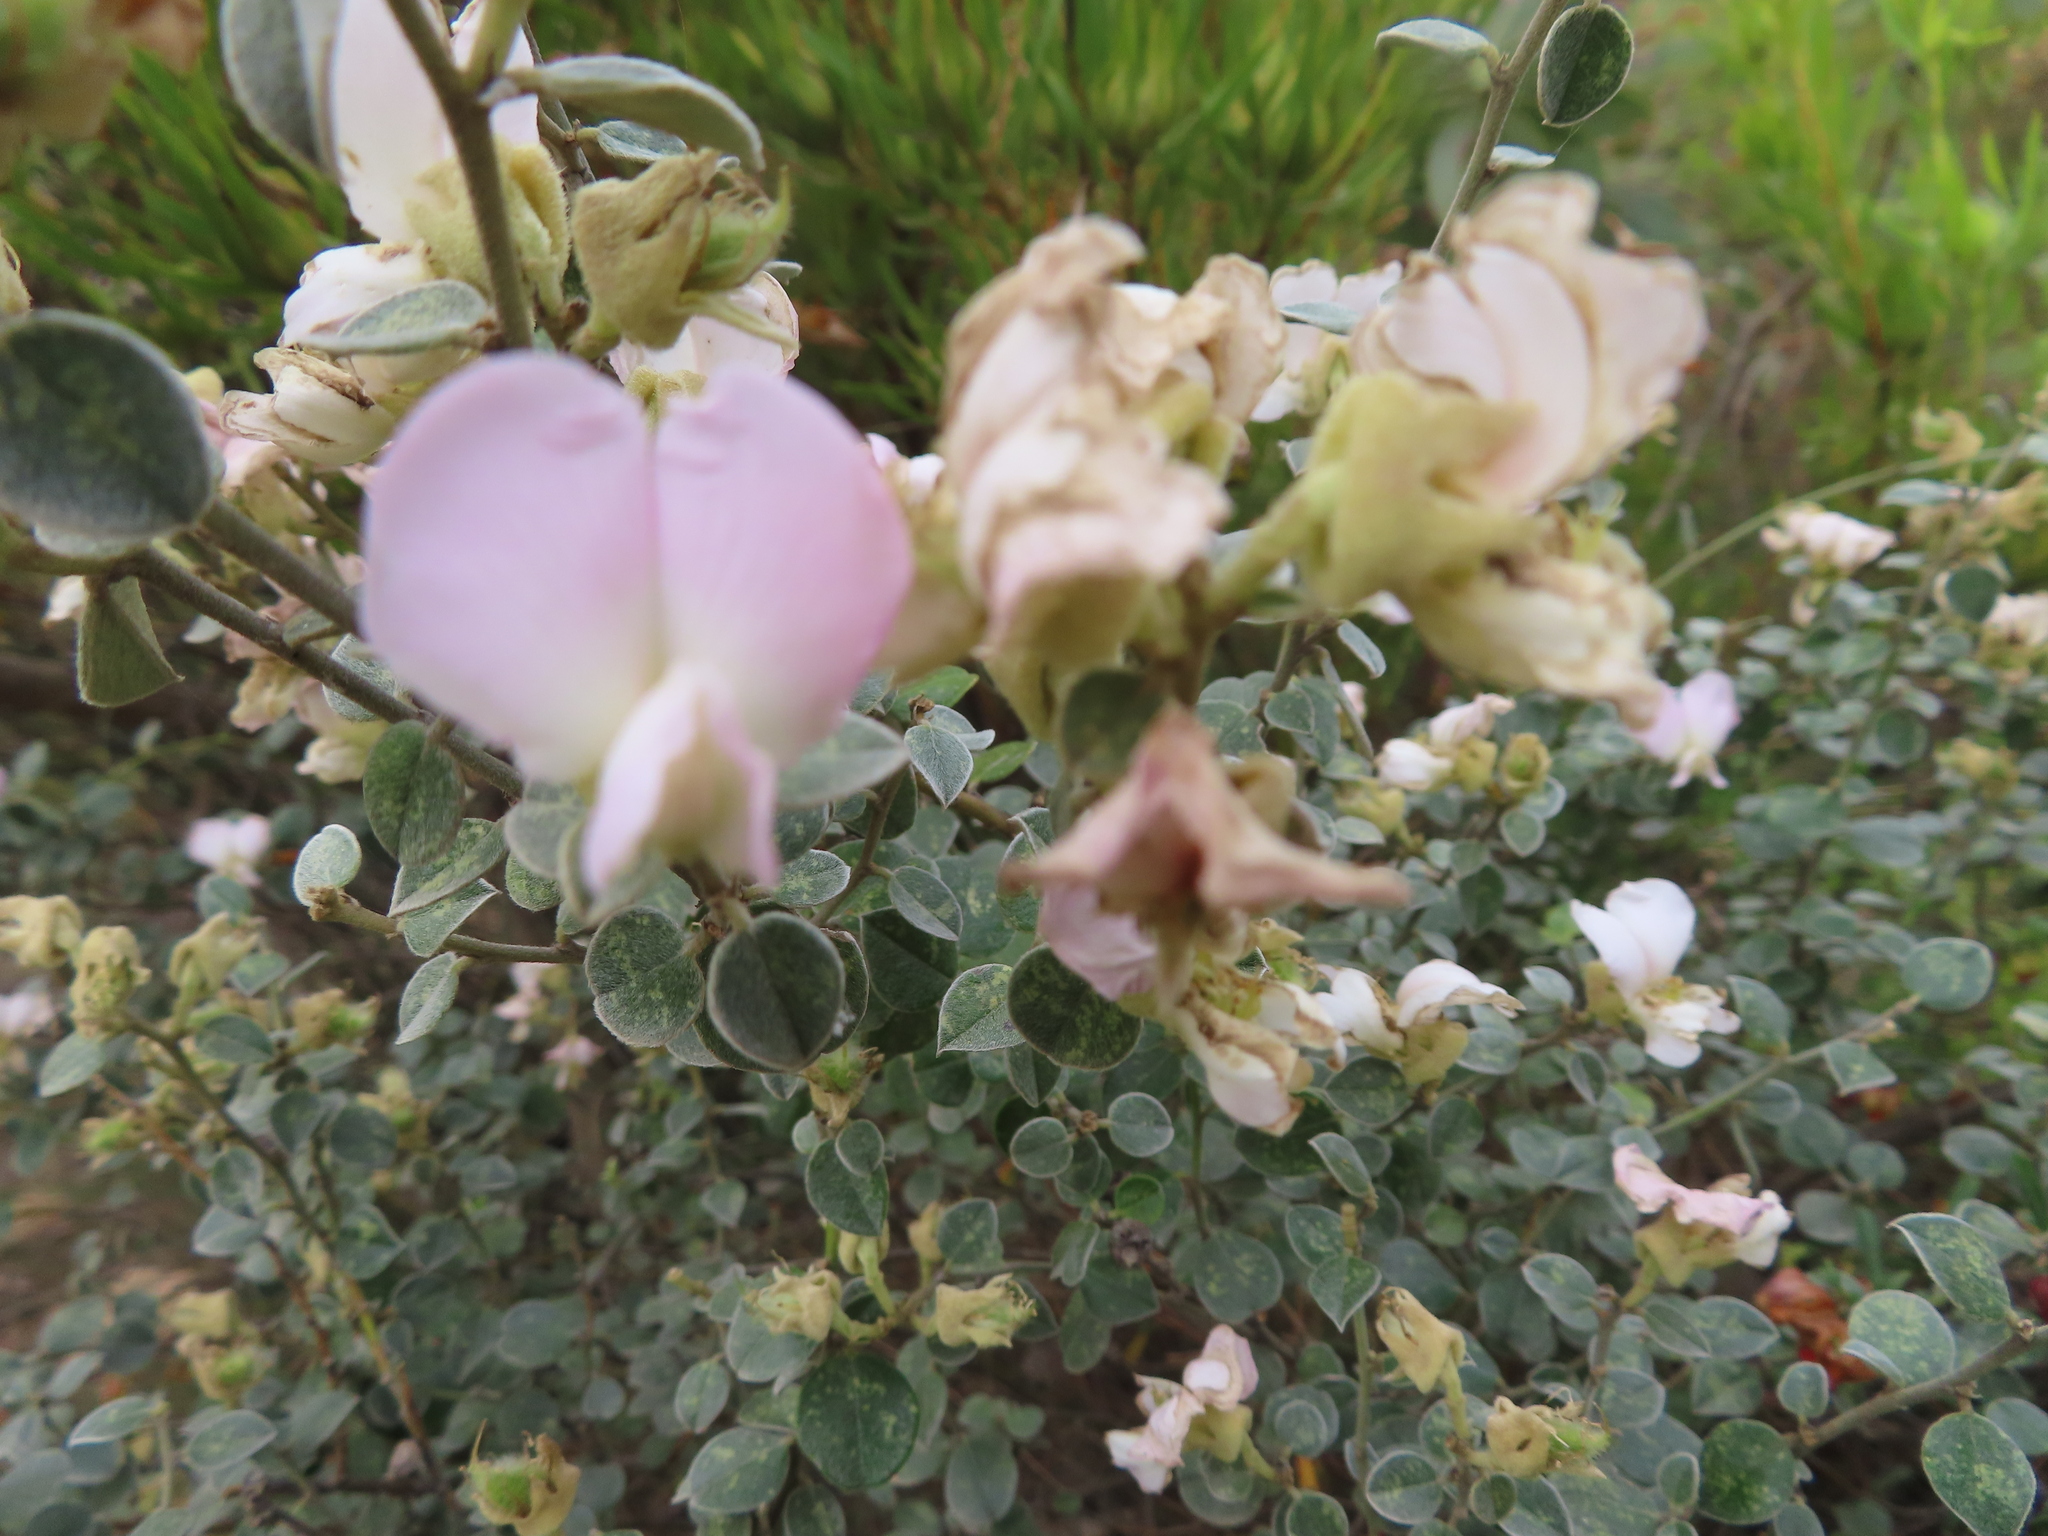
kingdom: Plantae
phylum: Tracheophyta
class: Magnoliopsida
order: Fabales
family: Fabaceae
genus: Podalyria
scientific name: Podalyria hirsuta
